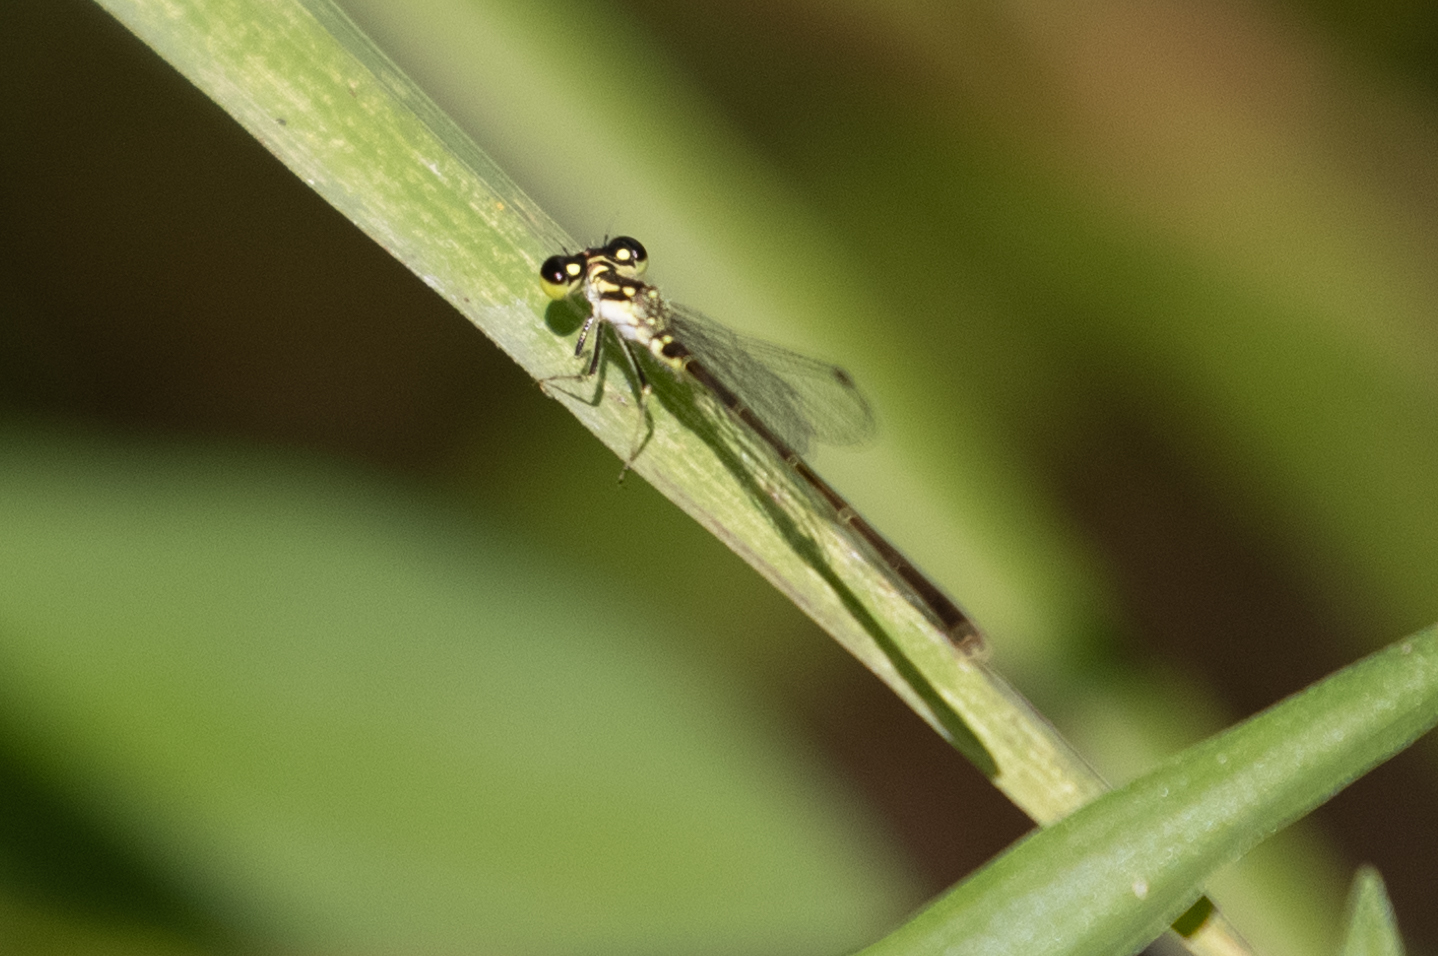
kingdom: Animalia
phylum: Arthropoda
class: Insecta
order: Odonata
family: Coenagrionidae
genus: Ischnura
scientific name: Ischnura posita
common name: Fragile forktail
